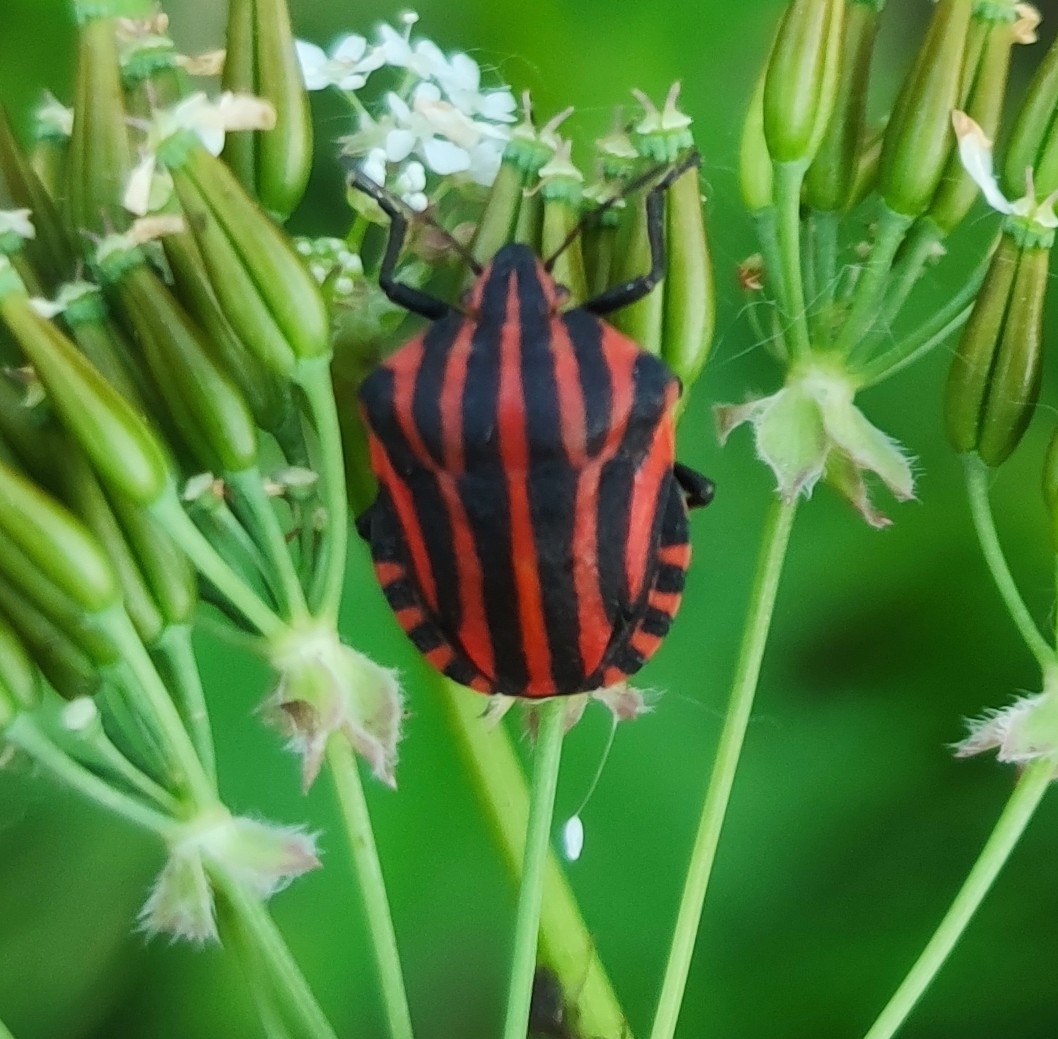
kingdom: Animalia
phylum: Arthropoda
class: Insecta
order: Hemiptera
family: Pentatomidae
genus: Graphosoma
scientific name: Graphosoma italicum
